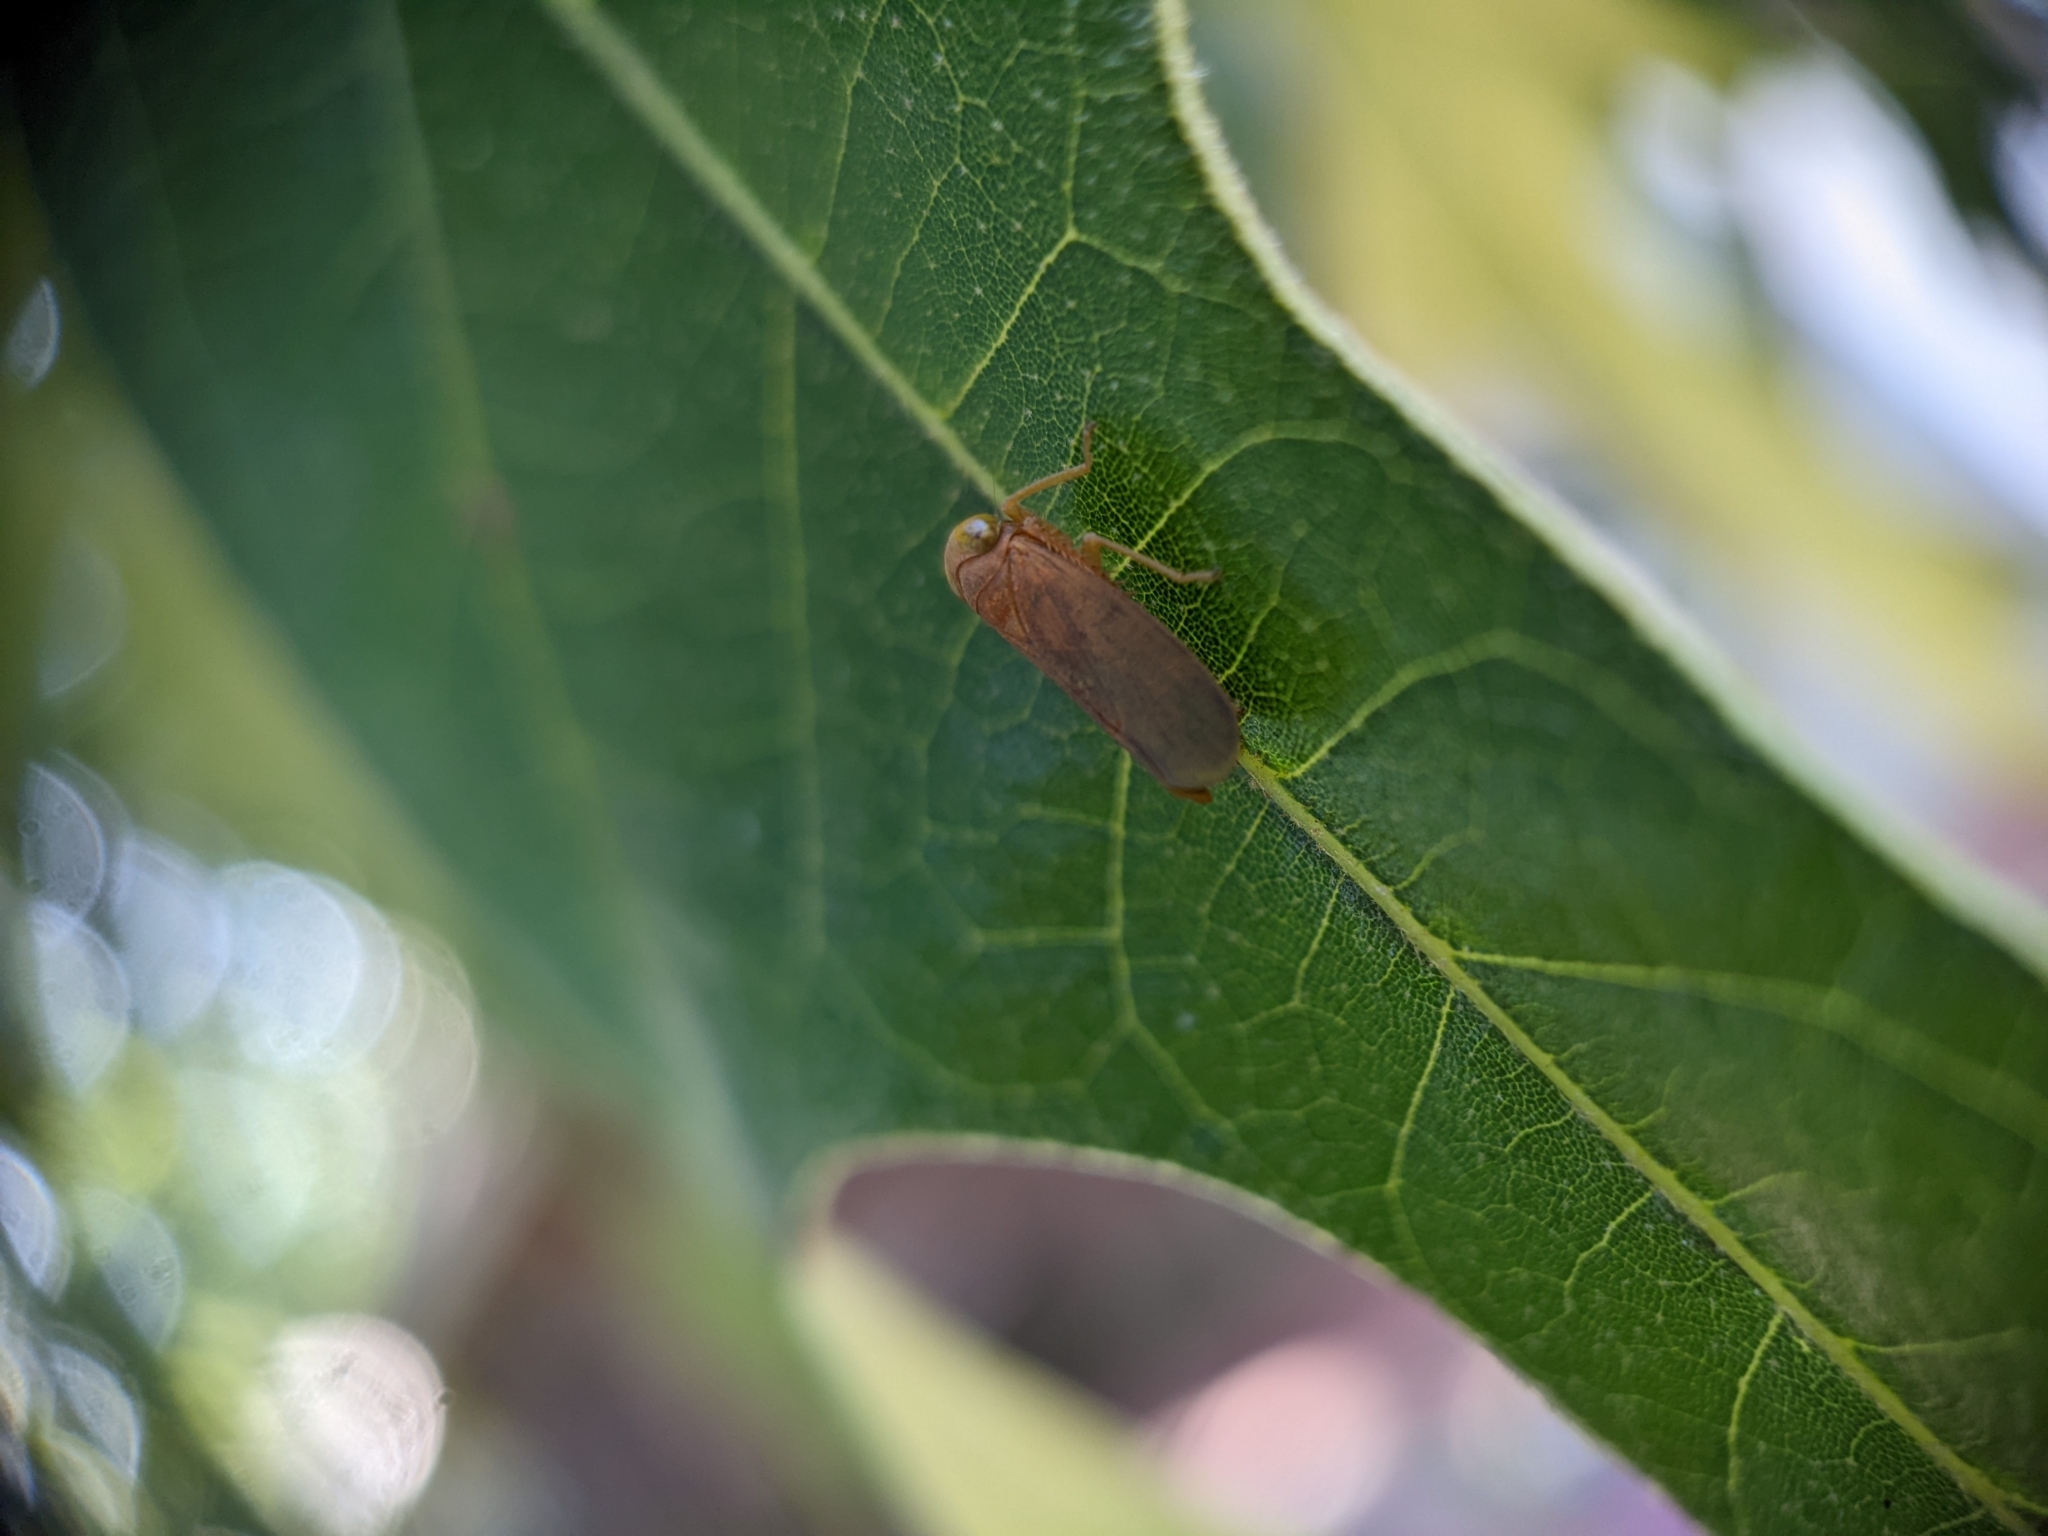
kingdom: Animalia
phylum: Arthropoda
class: Insecta
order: Hemiptera
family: Cicadellidae
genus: Jikradia
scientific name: Jikradia olitoria
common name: Coppery leafhopper
